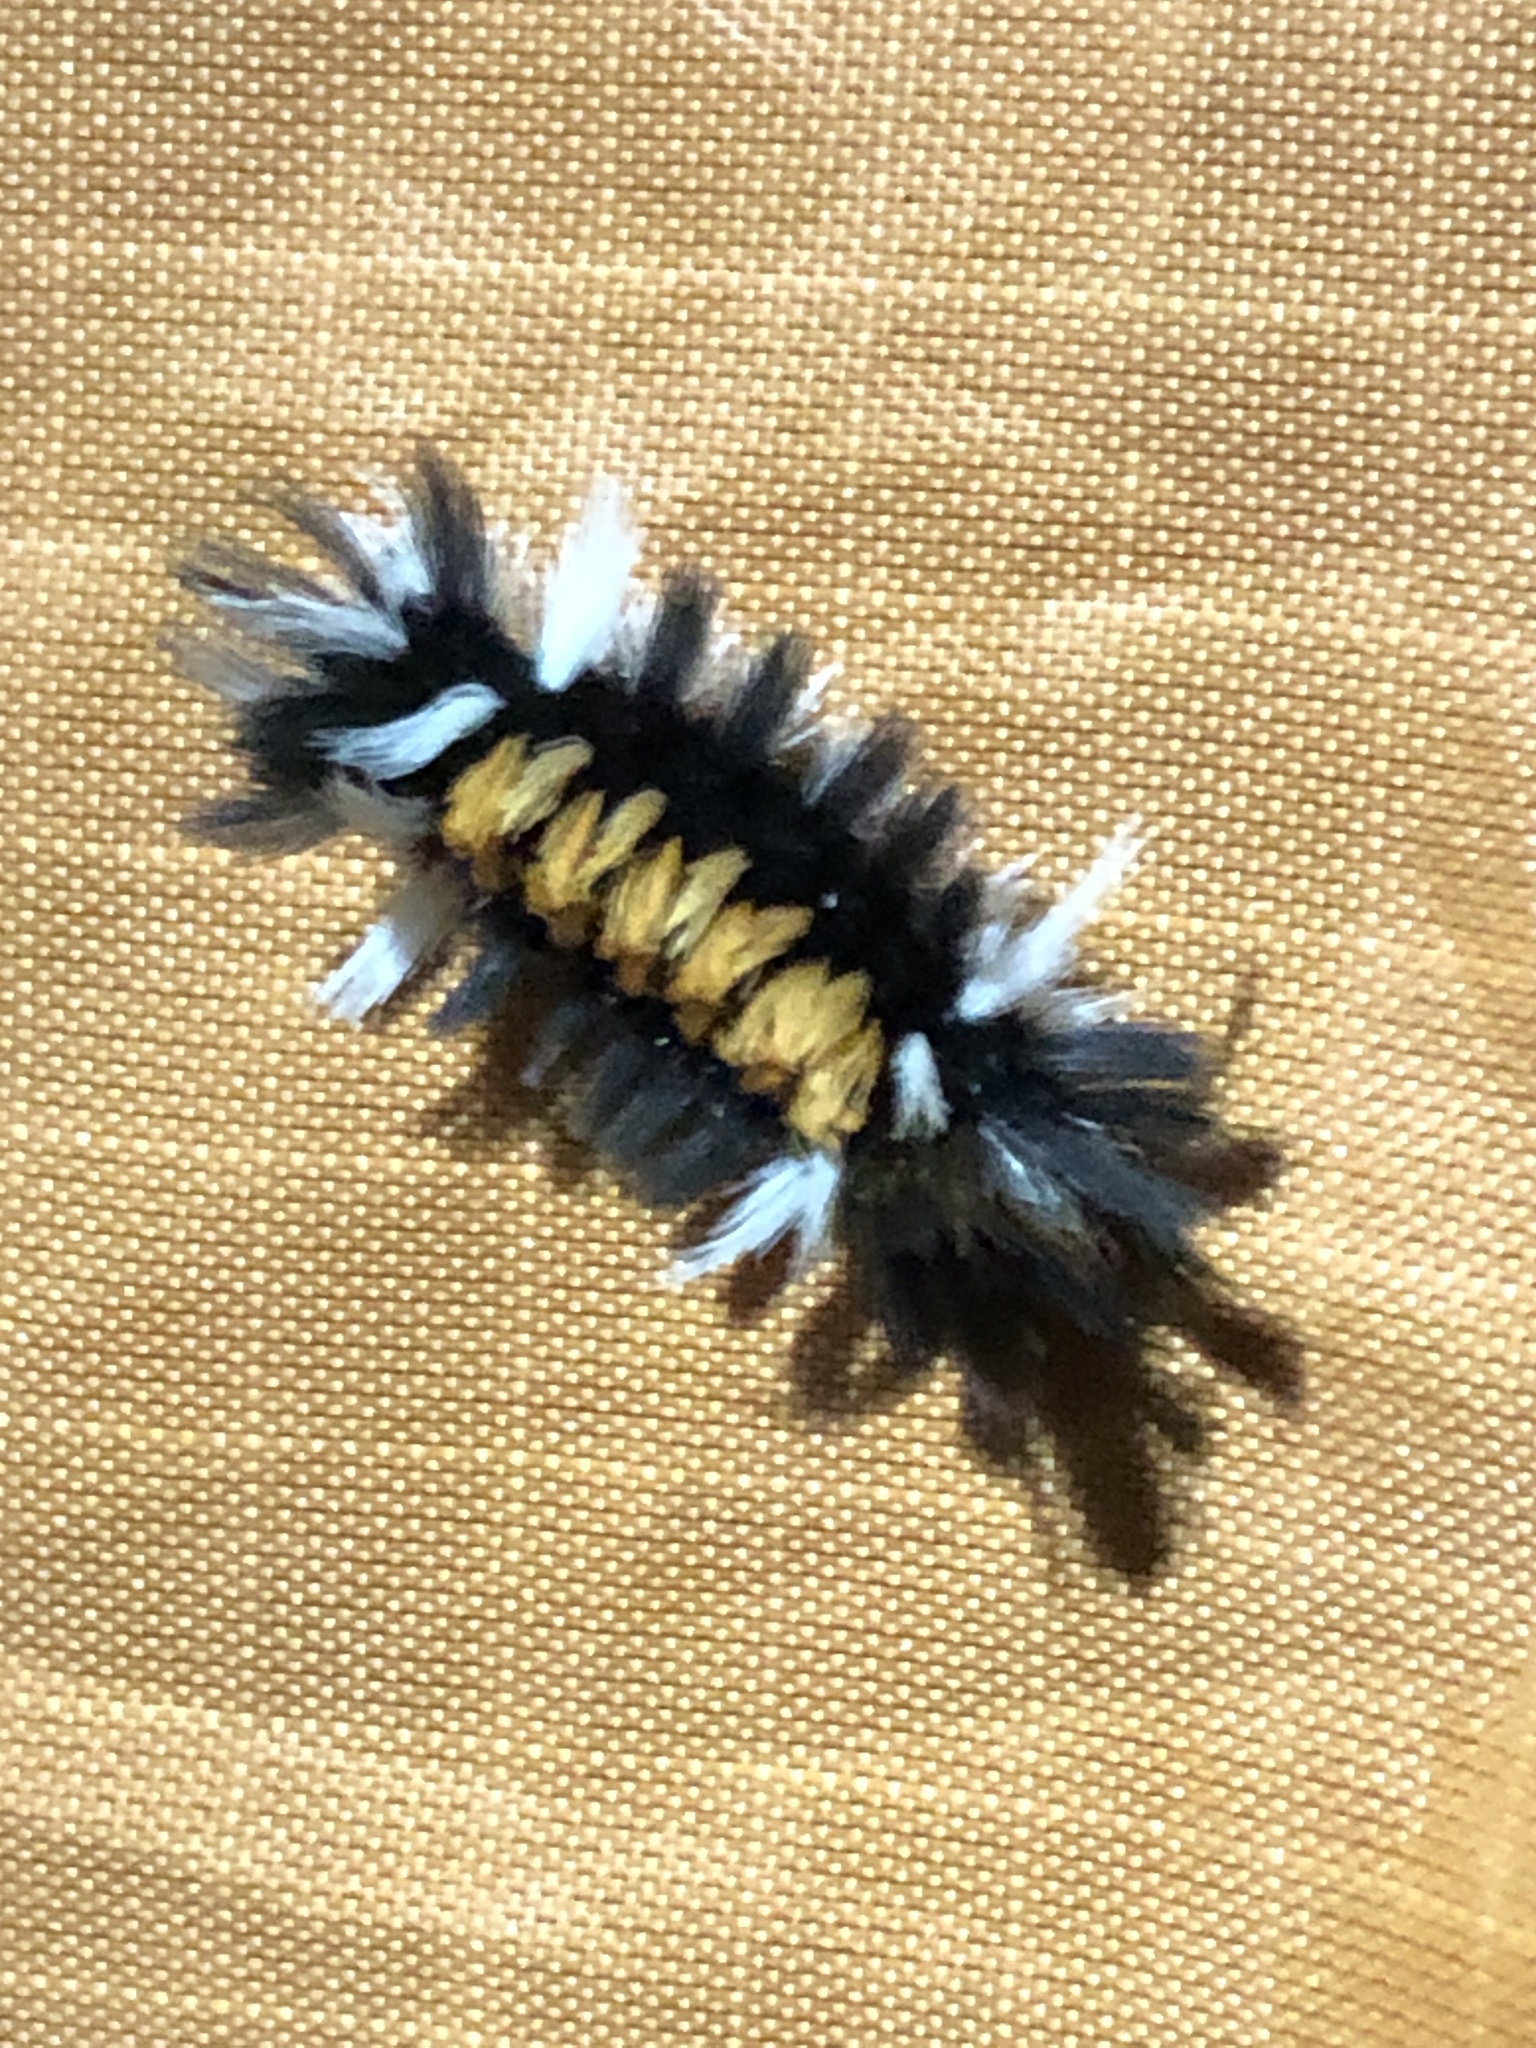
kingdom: Animalia
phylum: Arthropoda
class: Insecta
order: Lepidoptera
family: Erebidae
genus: Euchaetes
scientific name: Euchaetes egle
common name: Milkweed tussock moth
